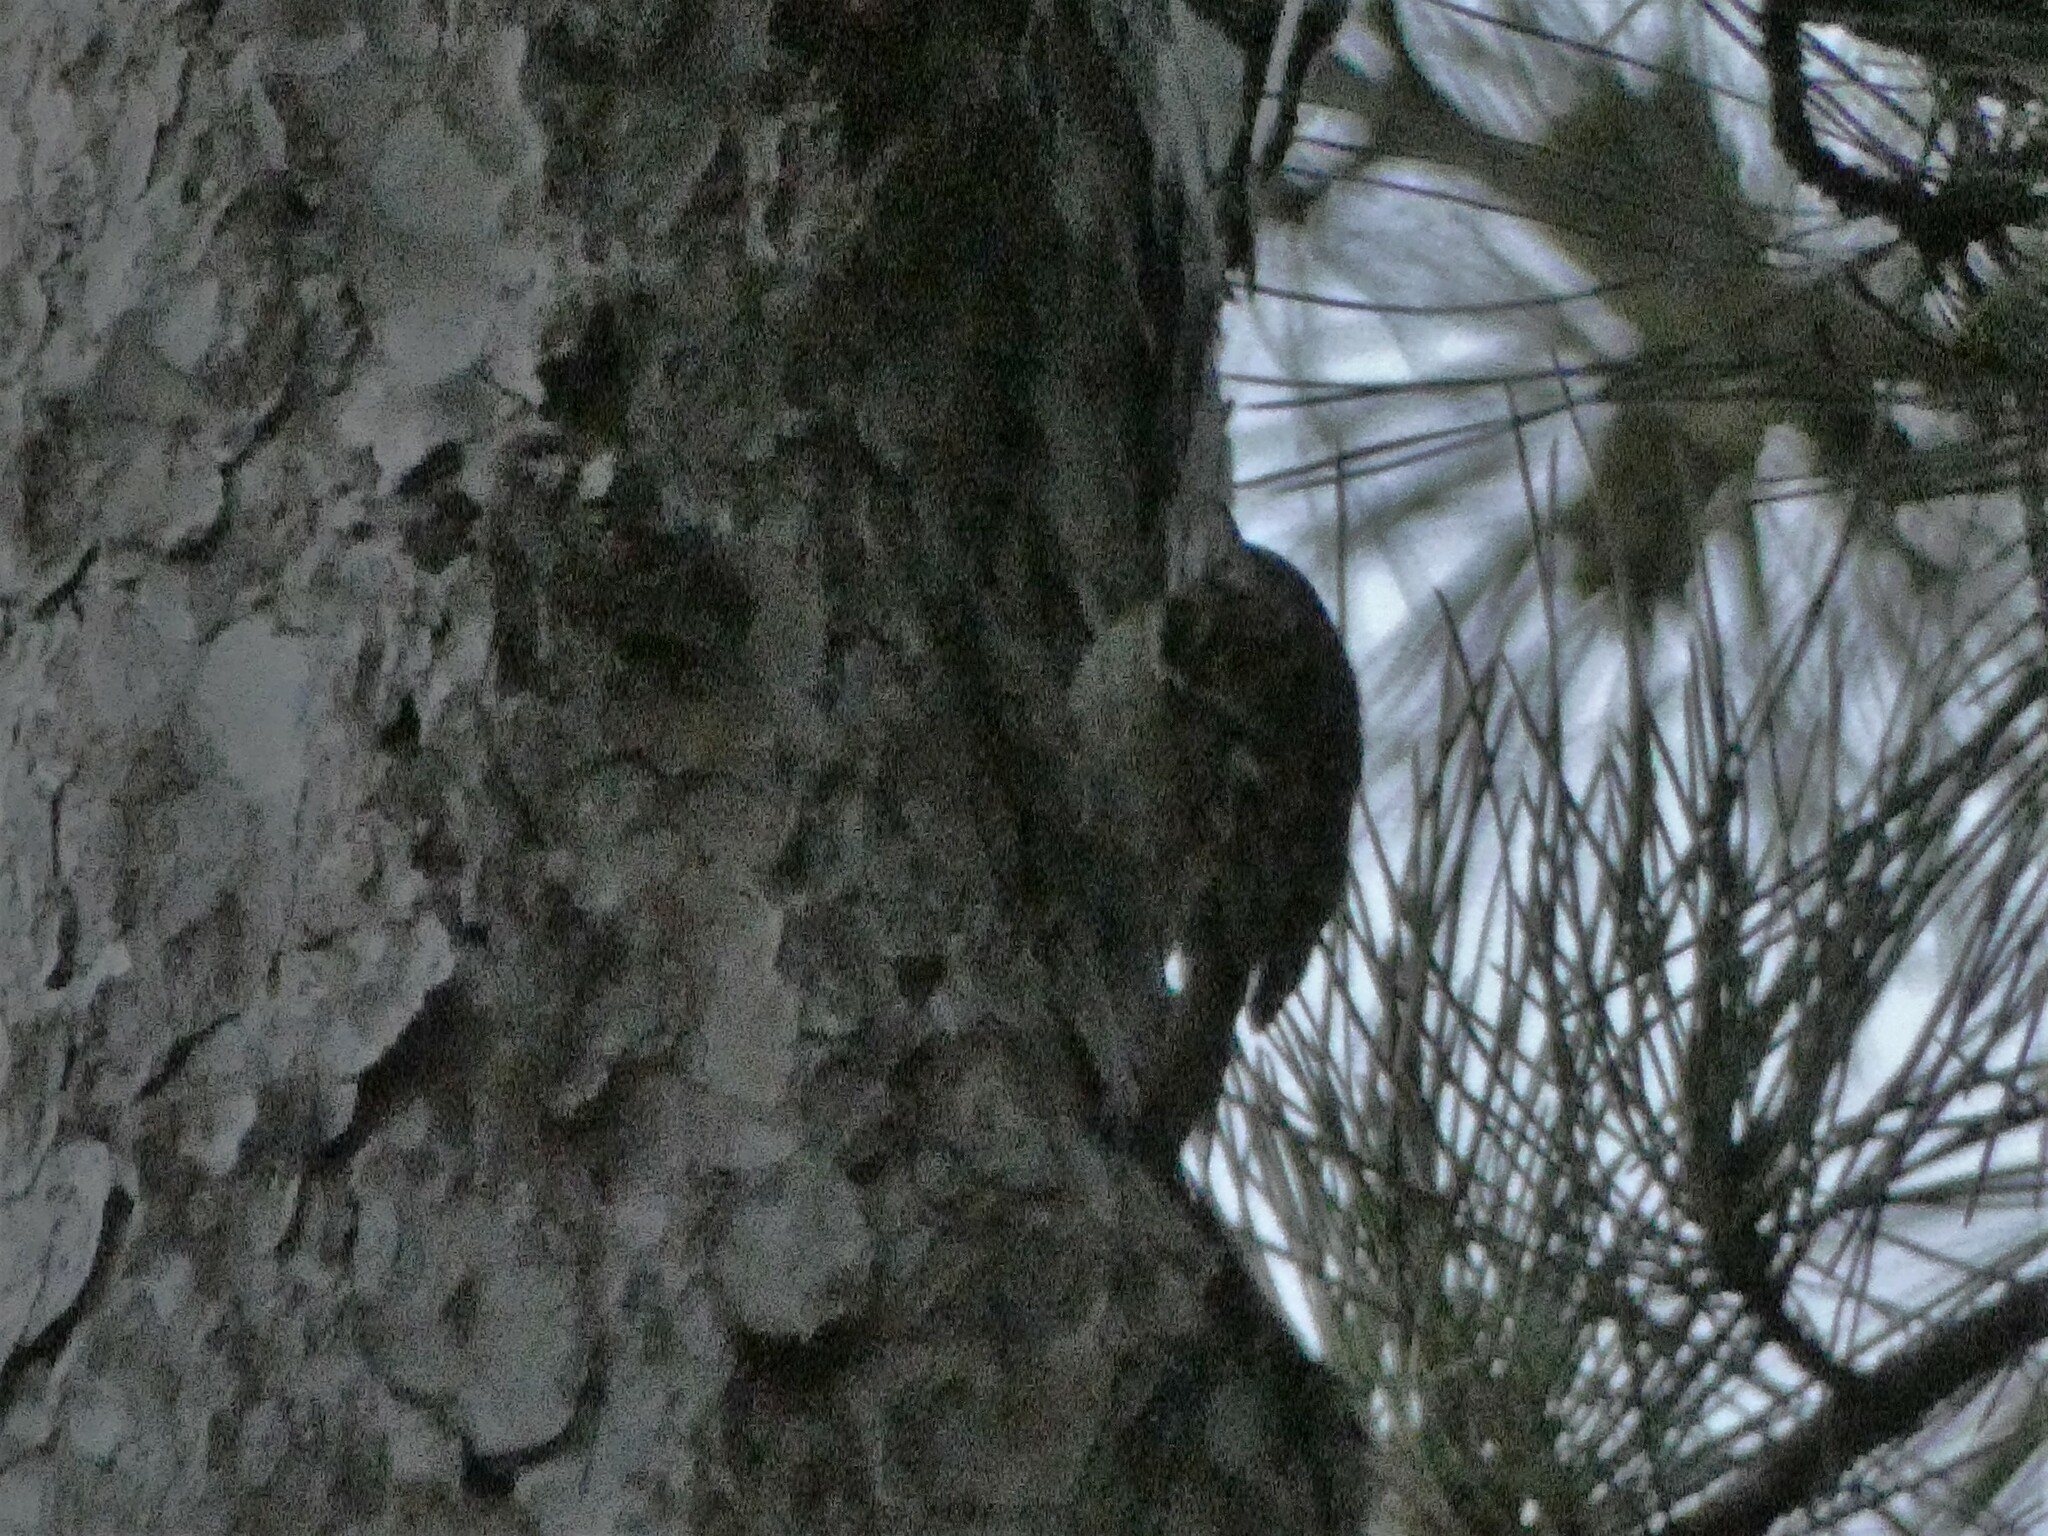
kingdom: Animalia
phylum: Chordata
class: Aves
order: Passeriformes
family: Certhiidae
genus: Certhia
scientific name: Certhia brachydactyla
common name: Short-toed treecreeper
